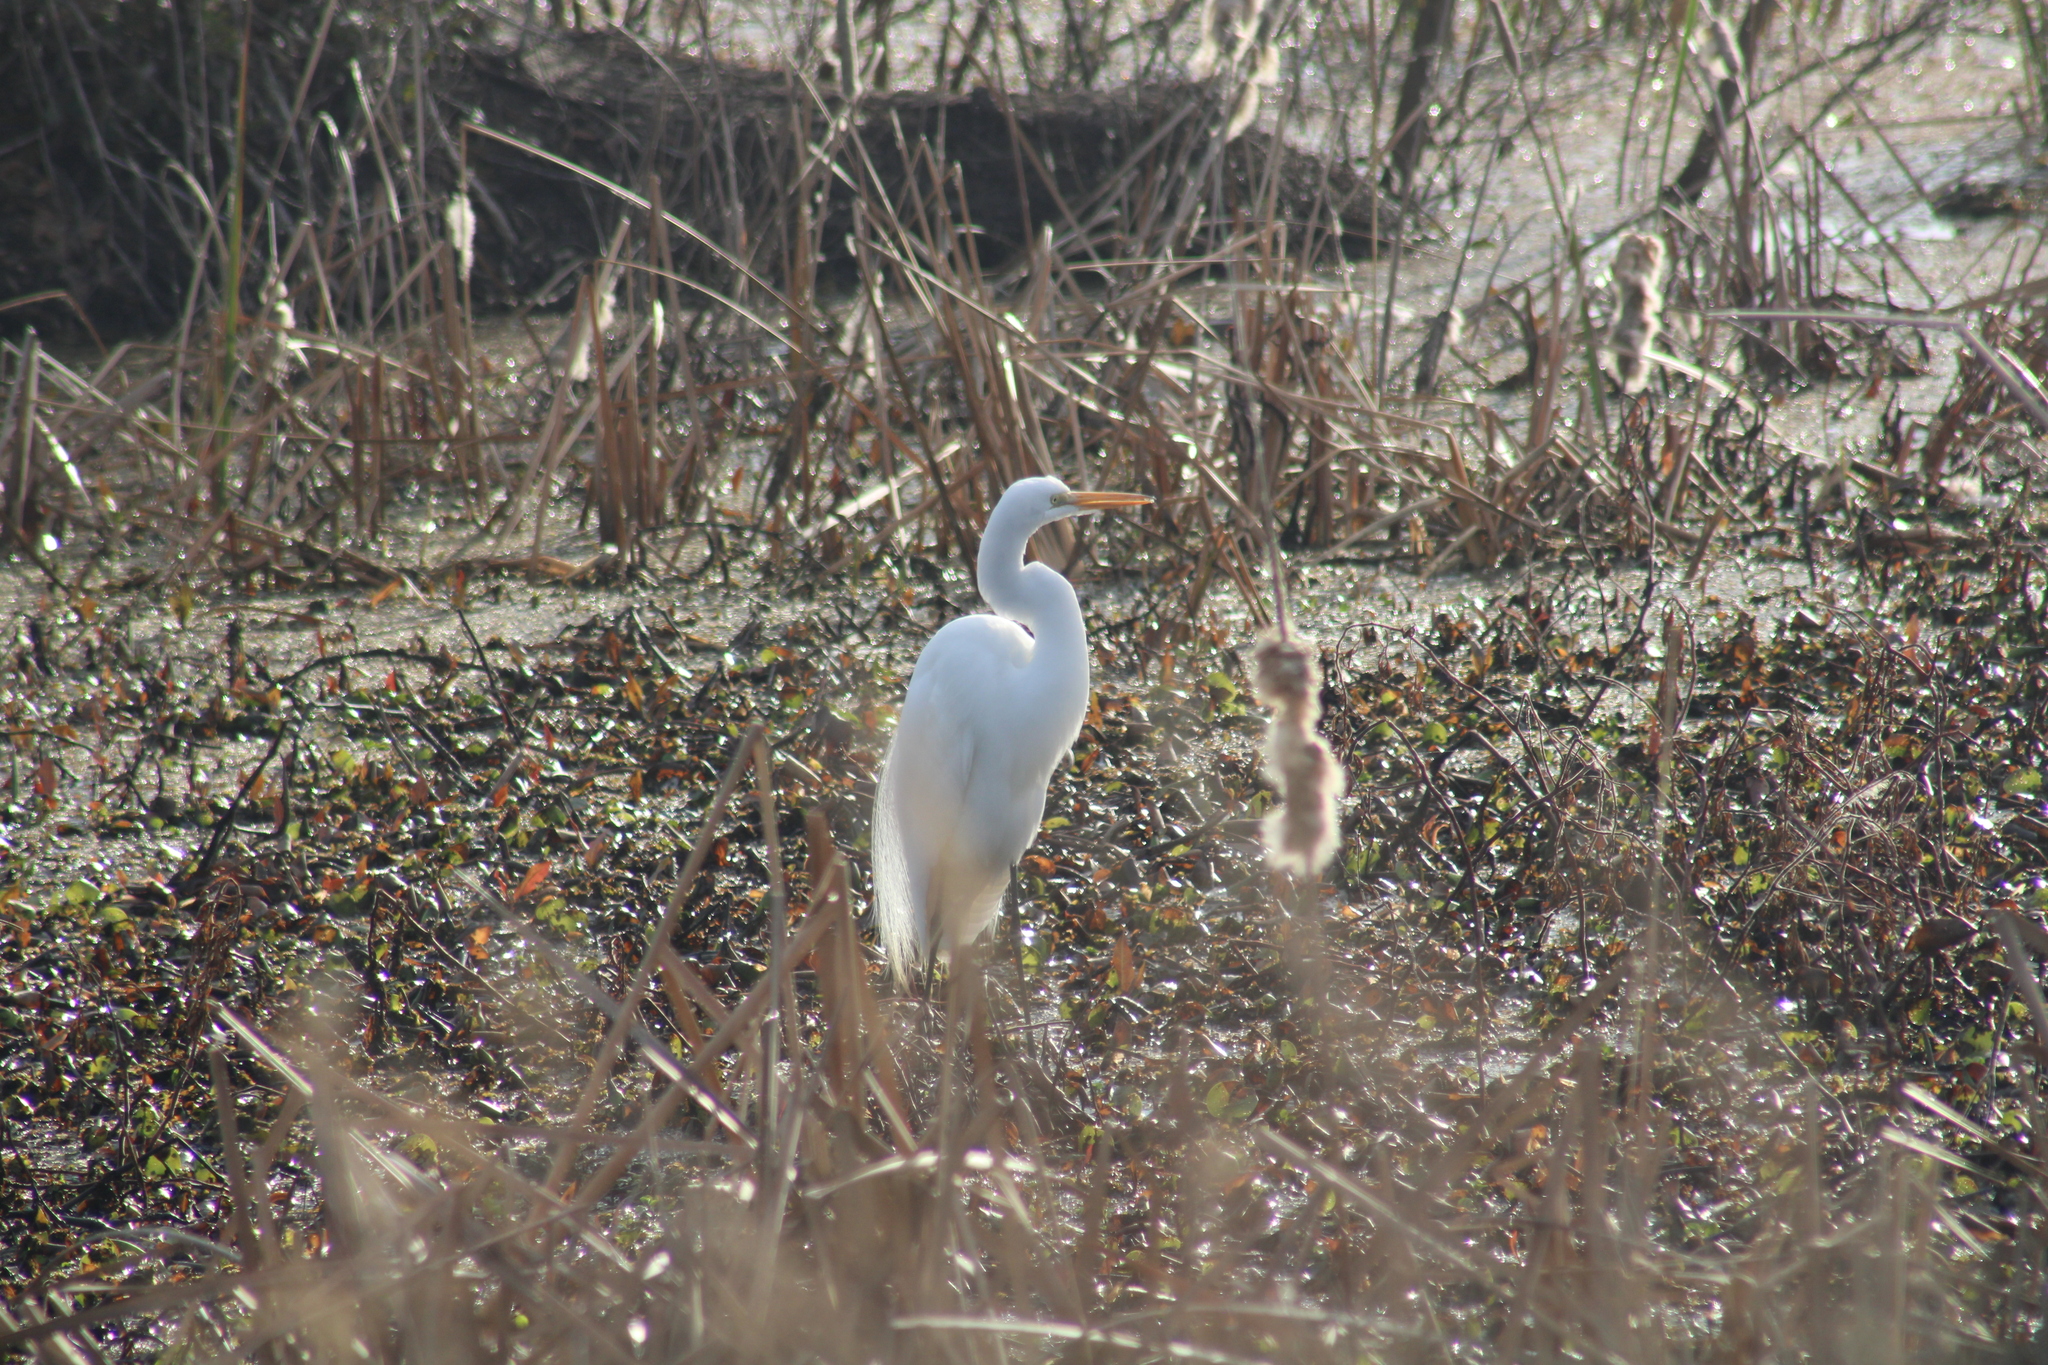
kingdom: Animalia
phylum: Chordata
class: Aves
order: Pelecaniformes
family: Ardeidae
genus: Ardea
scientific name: Ardea alba
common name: Great egret
